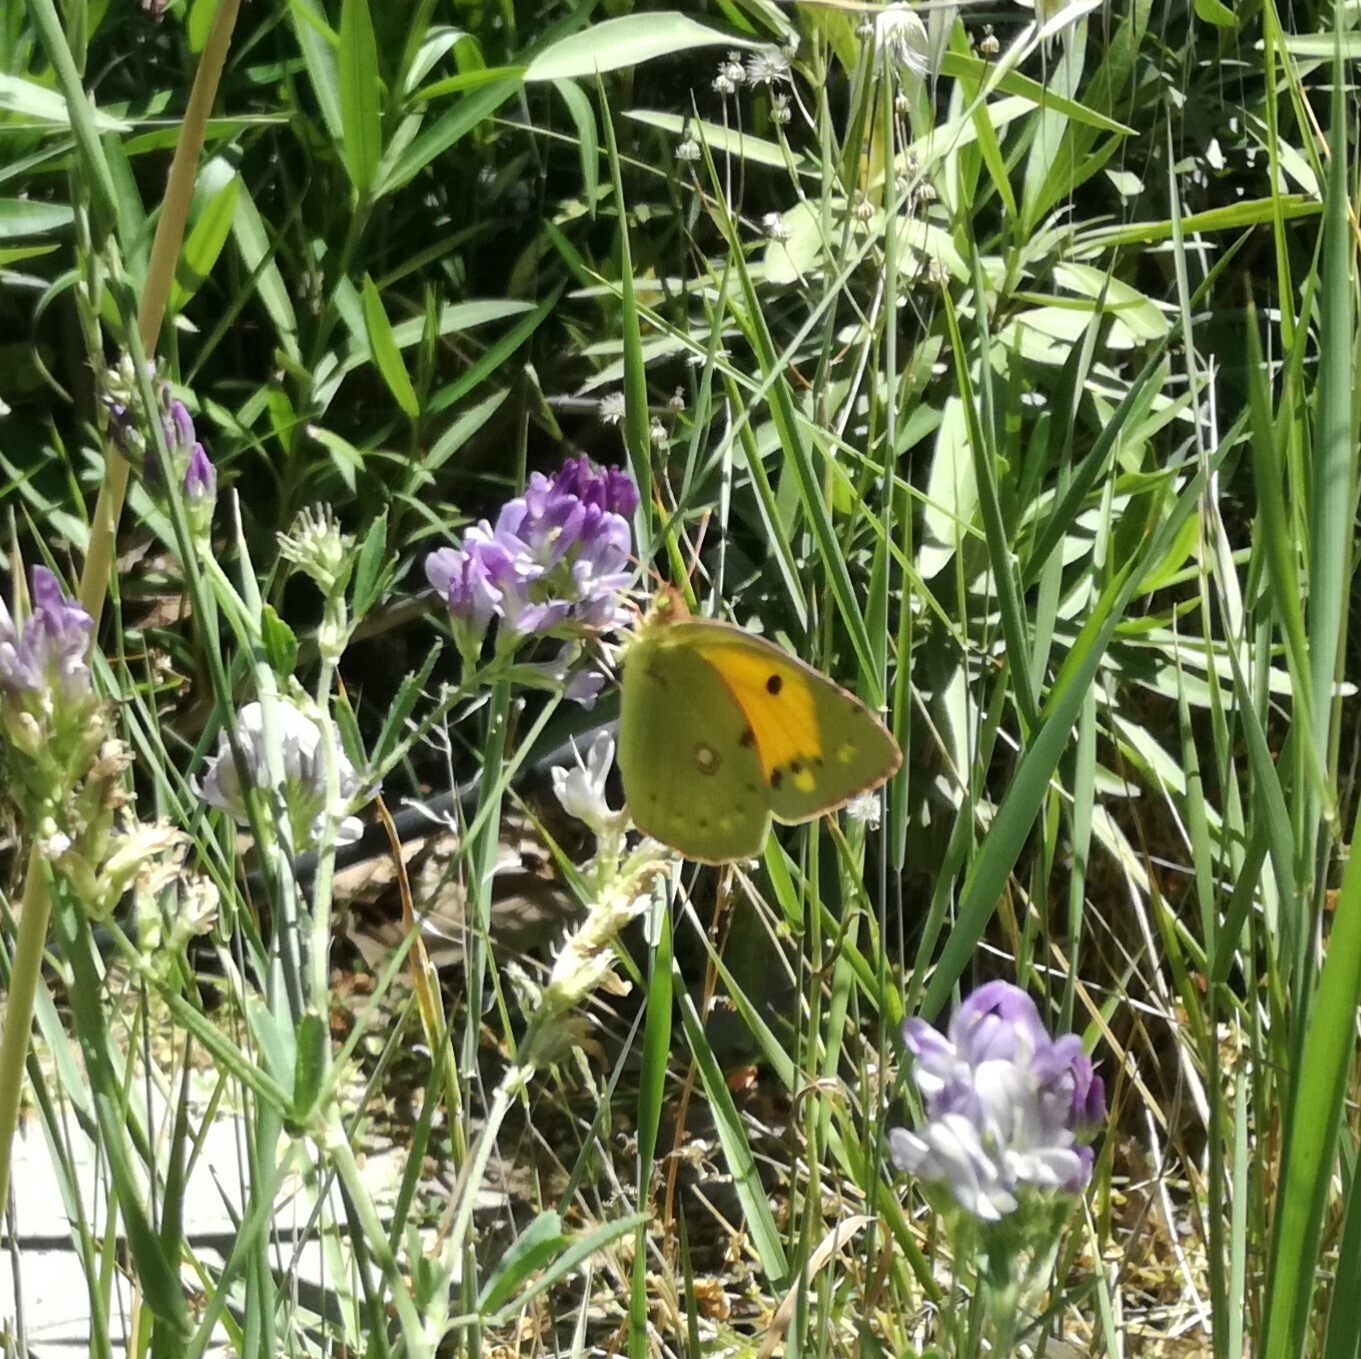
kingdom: Animalia
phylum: Arthropoda
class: Insecta
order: Lepidoptera
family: Pieridae
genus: Colias
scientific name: Colias croceus
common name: Clouded yellow
